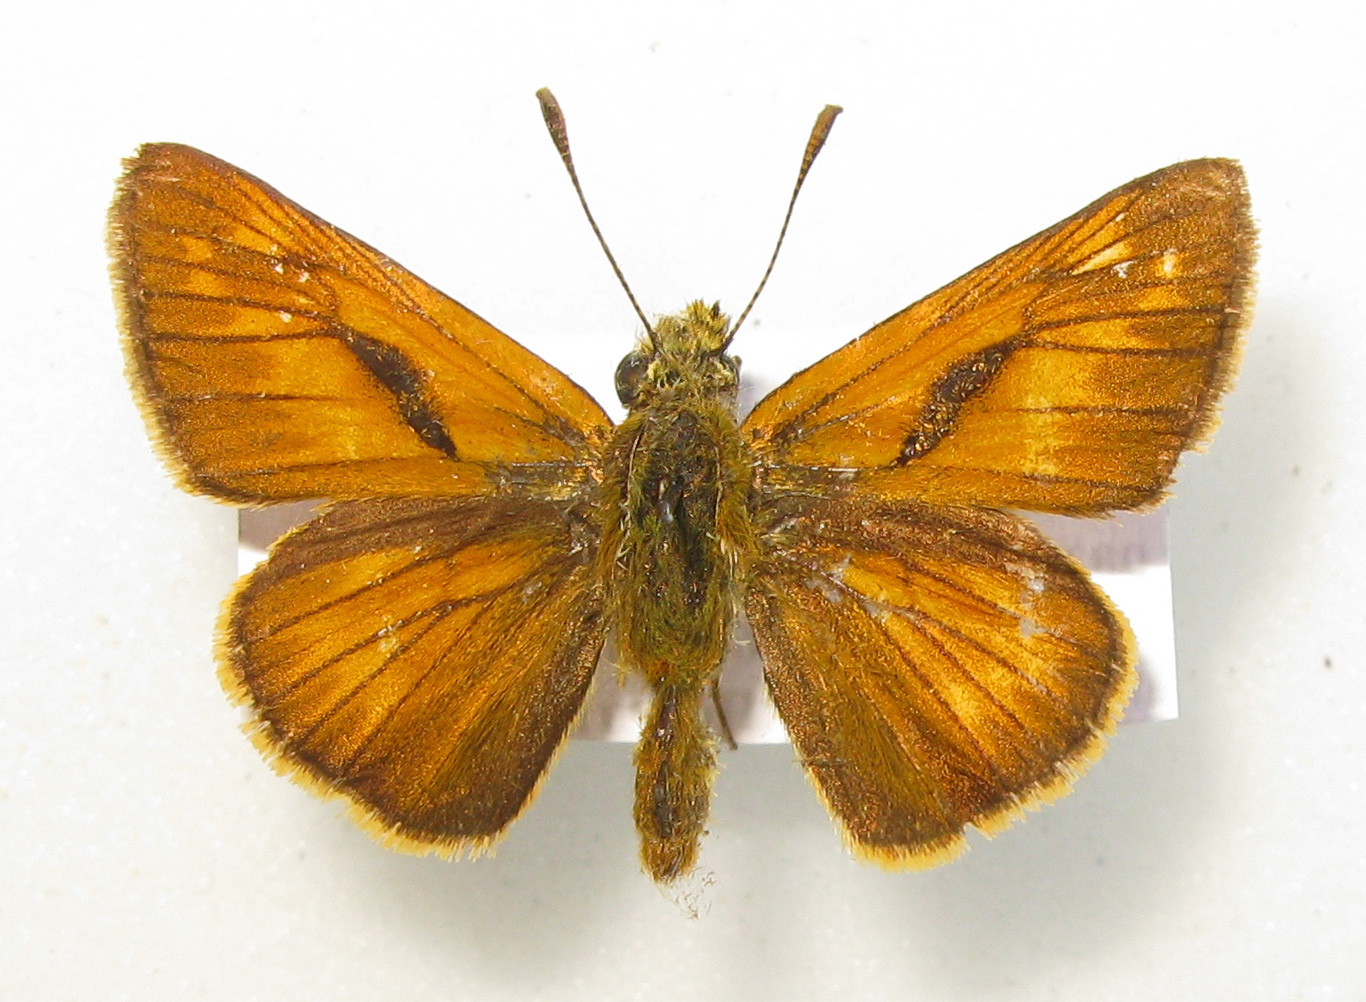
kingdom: Animalia
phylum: Arthropoda
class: Insecta
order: Lepidoptera
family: Hesperiidae
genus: Ochlodes
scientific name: Ochlodes venata
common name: Large skipper
